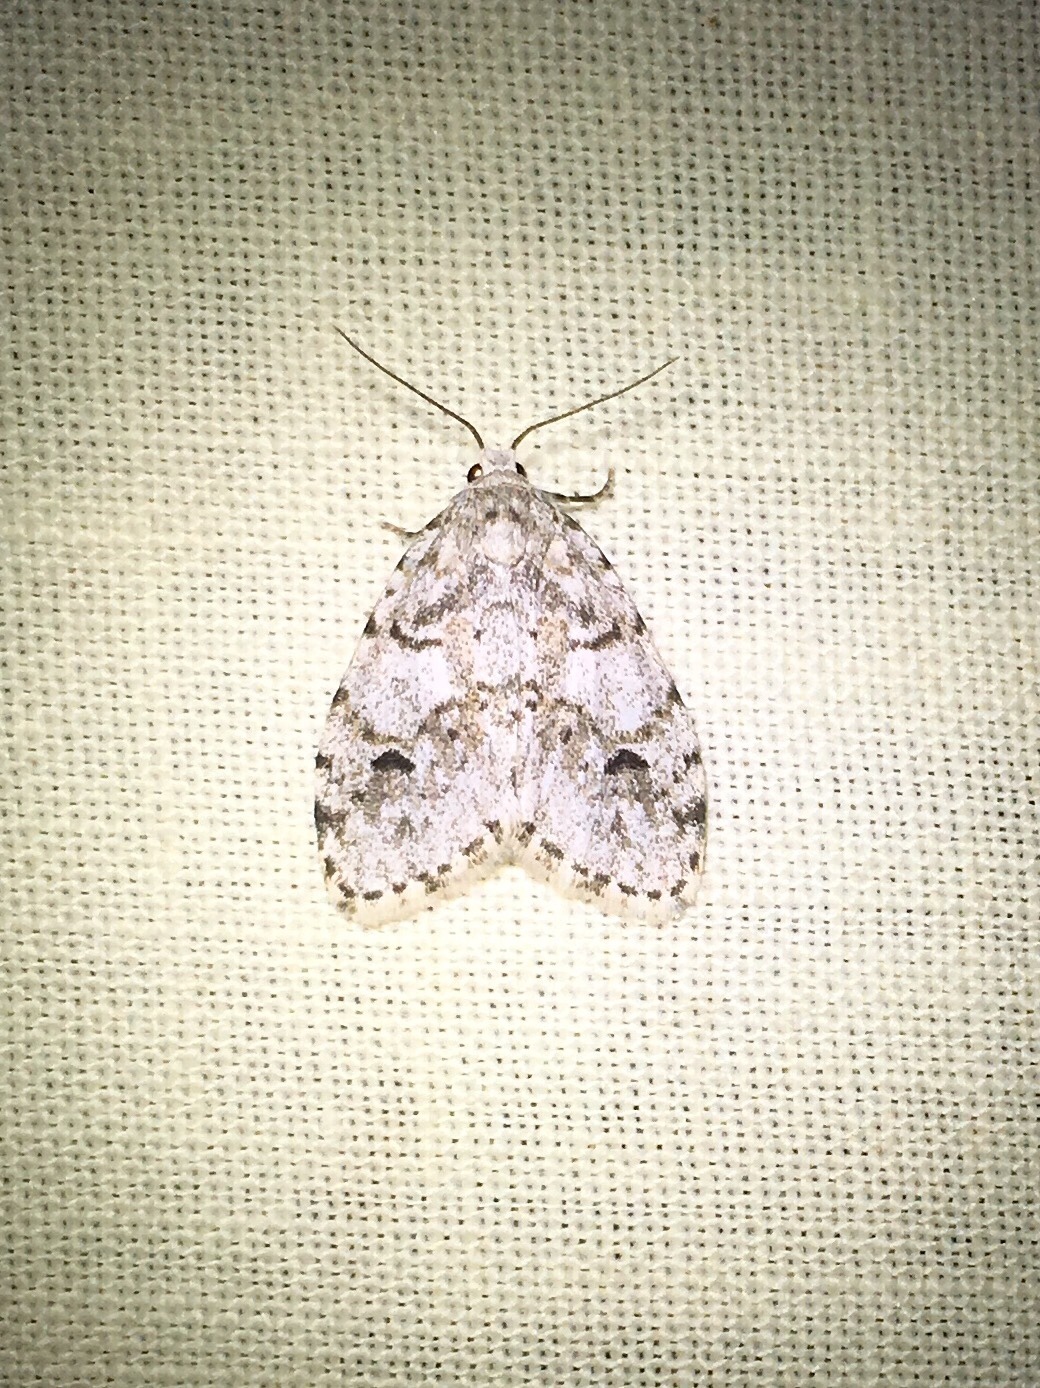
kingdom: Animalia
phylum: Arthropoda
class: Insecta
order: Lepidoptera
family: Erebidae
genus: Clemensia
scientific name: Clemensia albata
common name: Little white lichen moth
